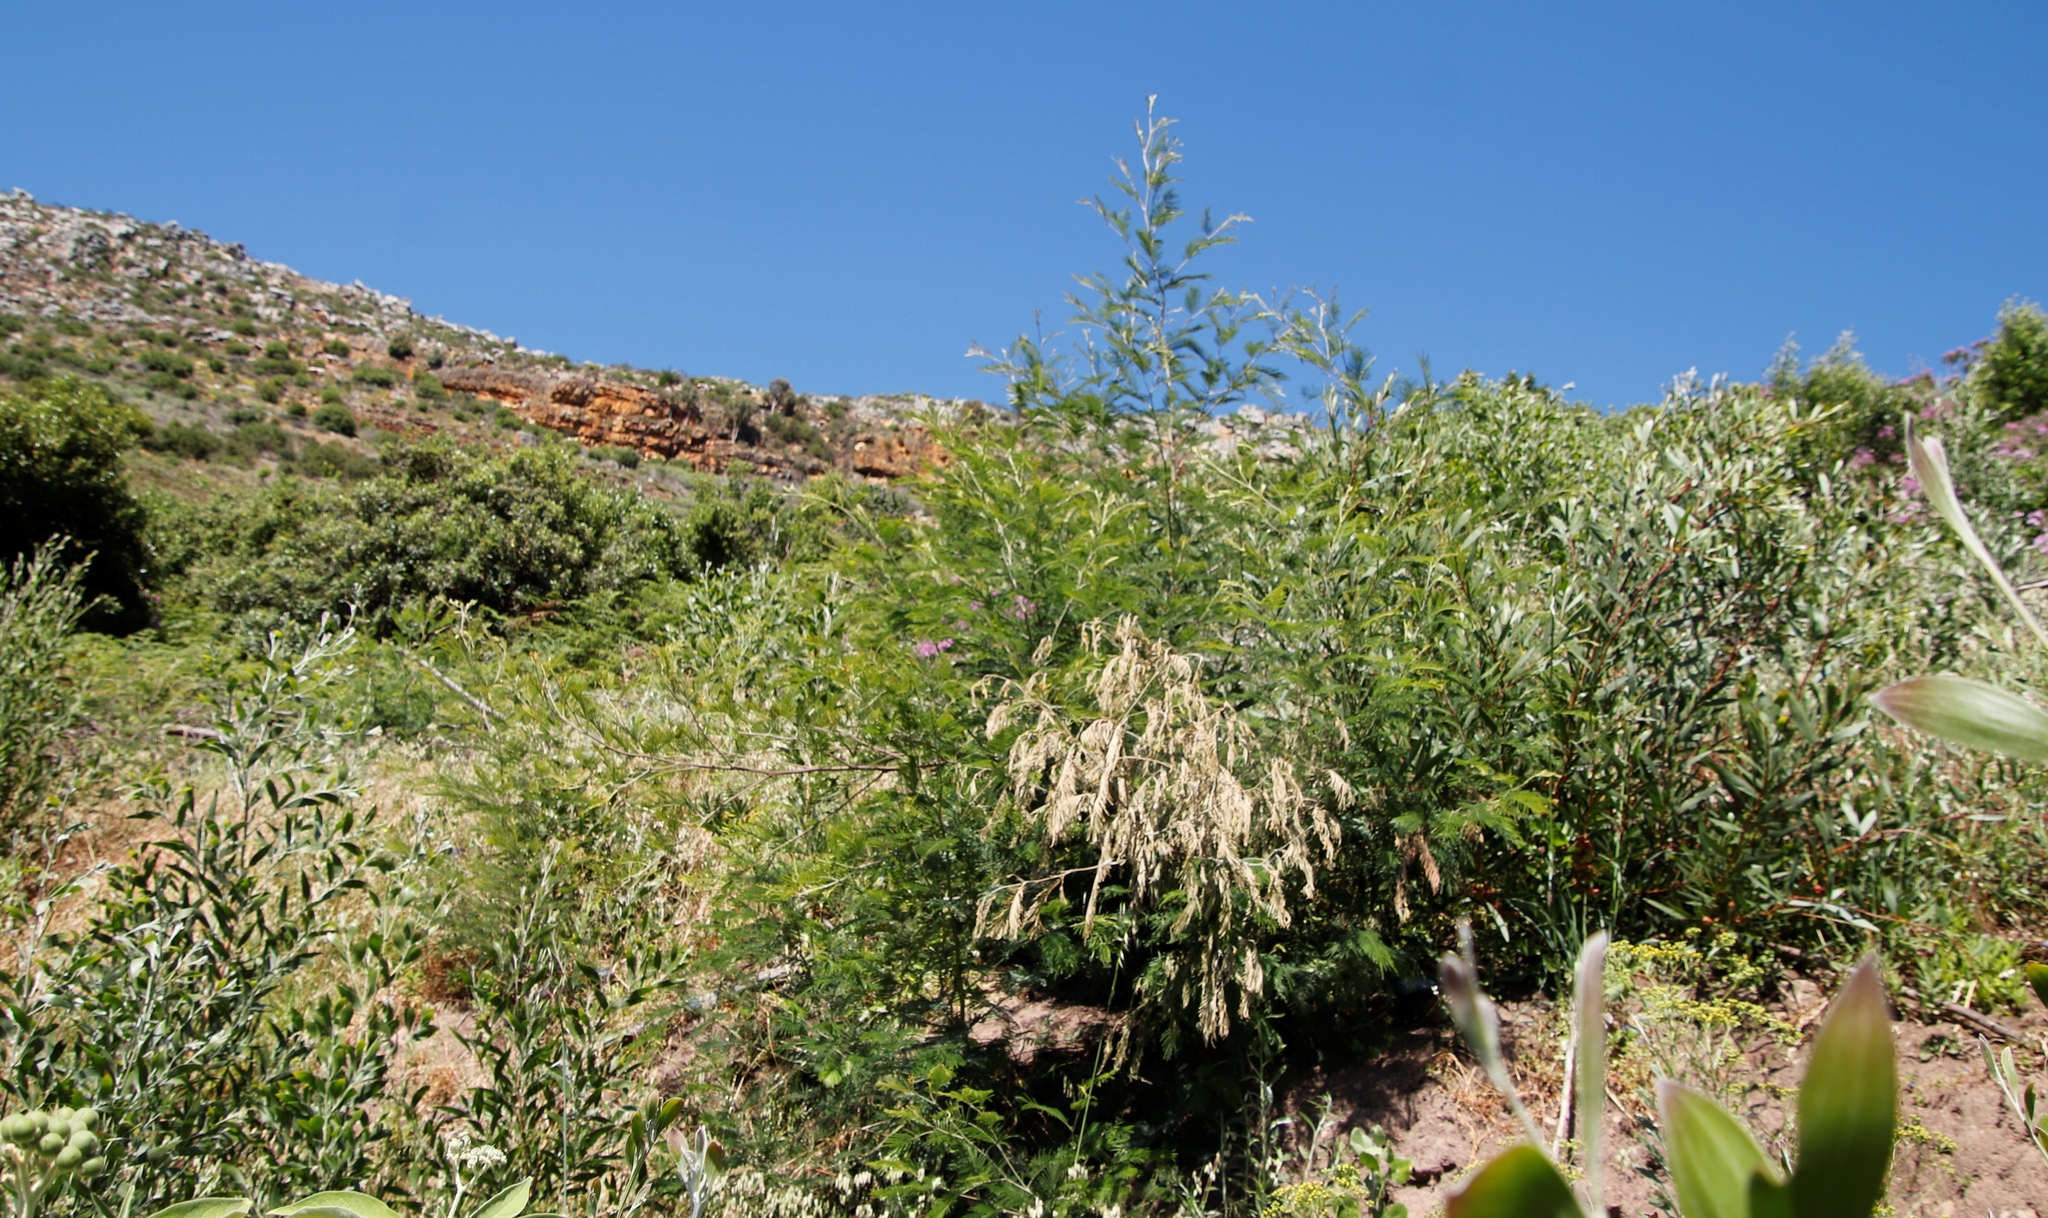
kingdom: Plantae
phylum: Tracheophyta
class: Magnoliopsida
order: Fabales
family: Fabaceae
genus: Acacia
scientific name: Acacia mearnsii
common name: Black wattle
